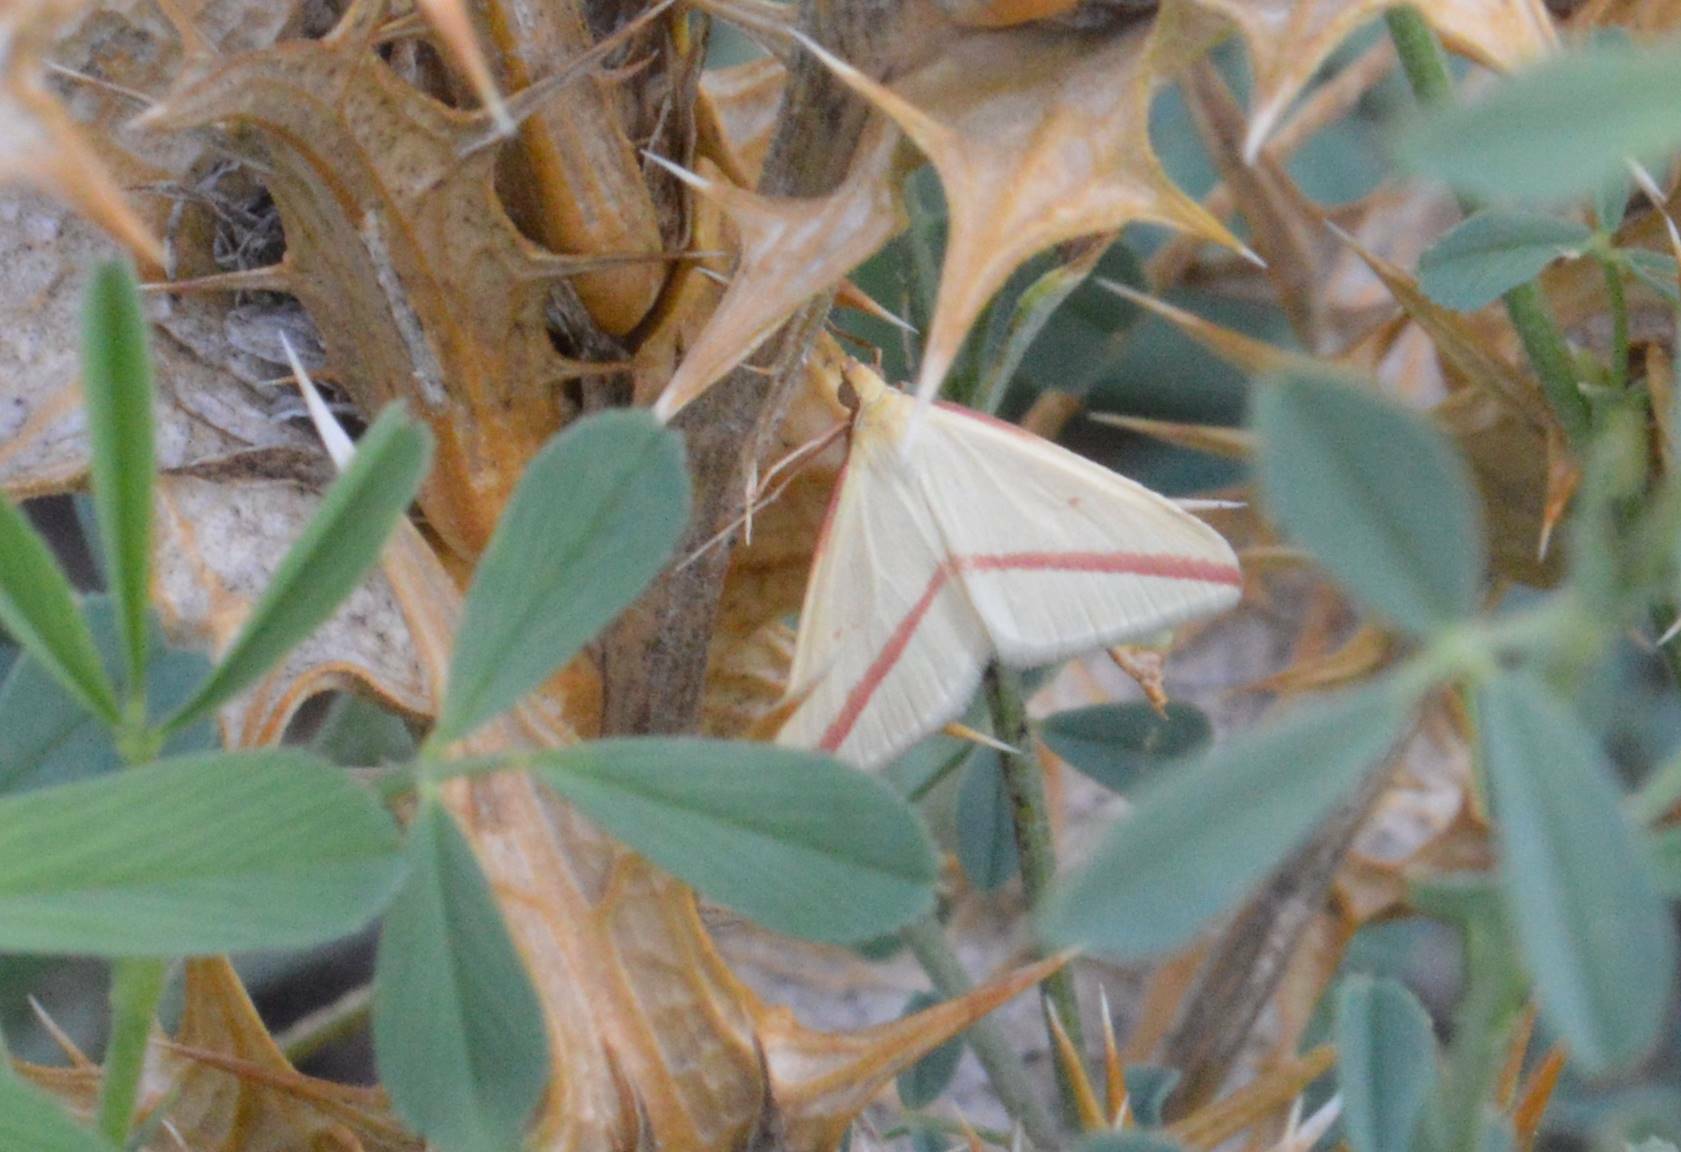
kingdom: Animalia
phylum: Arthropoda
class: Insecta
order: Lepidoptera
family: Geometridae
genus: Rhodometra
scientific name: Rhodometra sacraria
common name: Vestal
